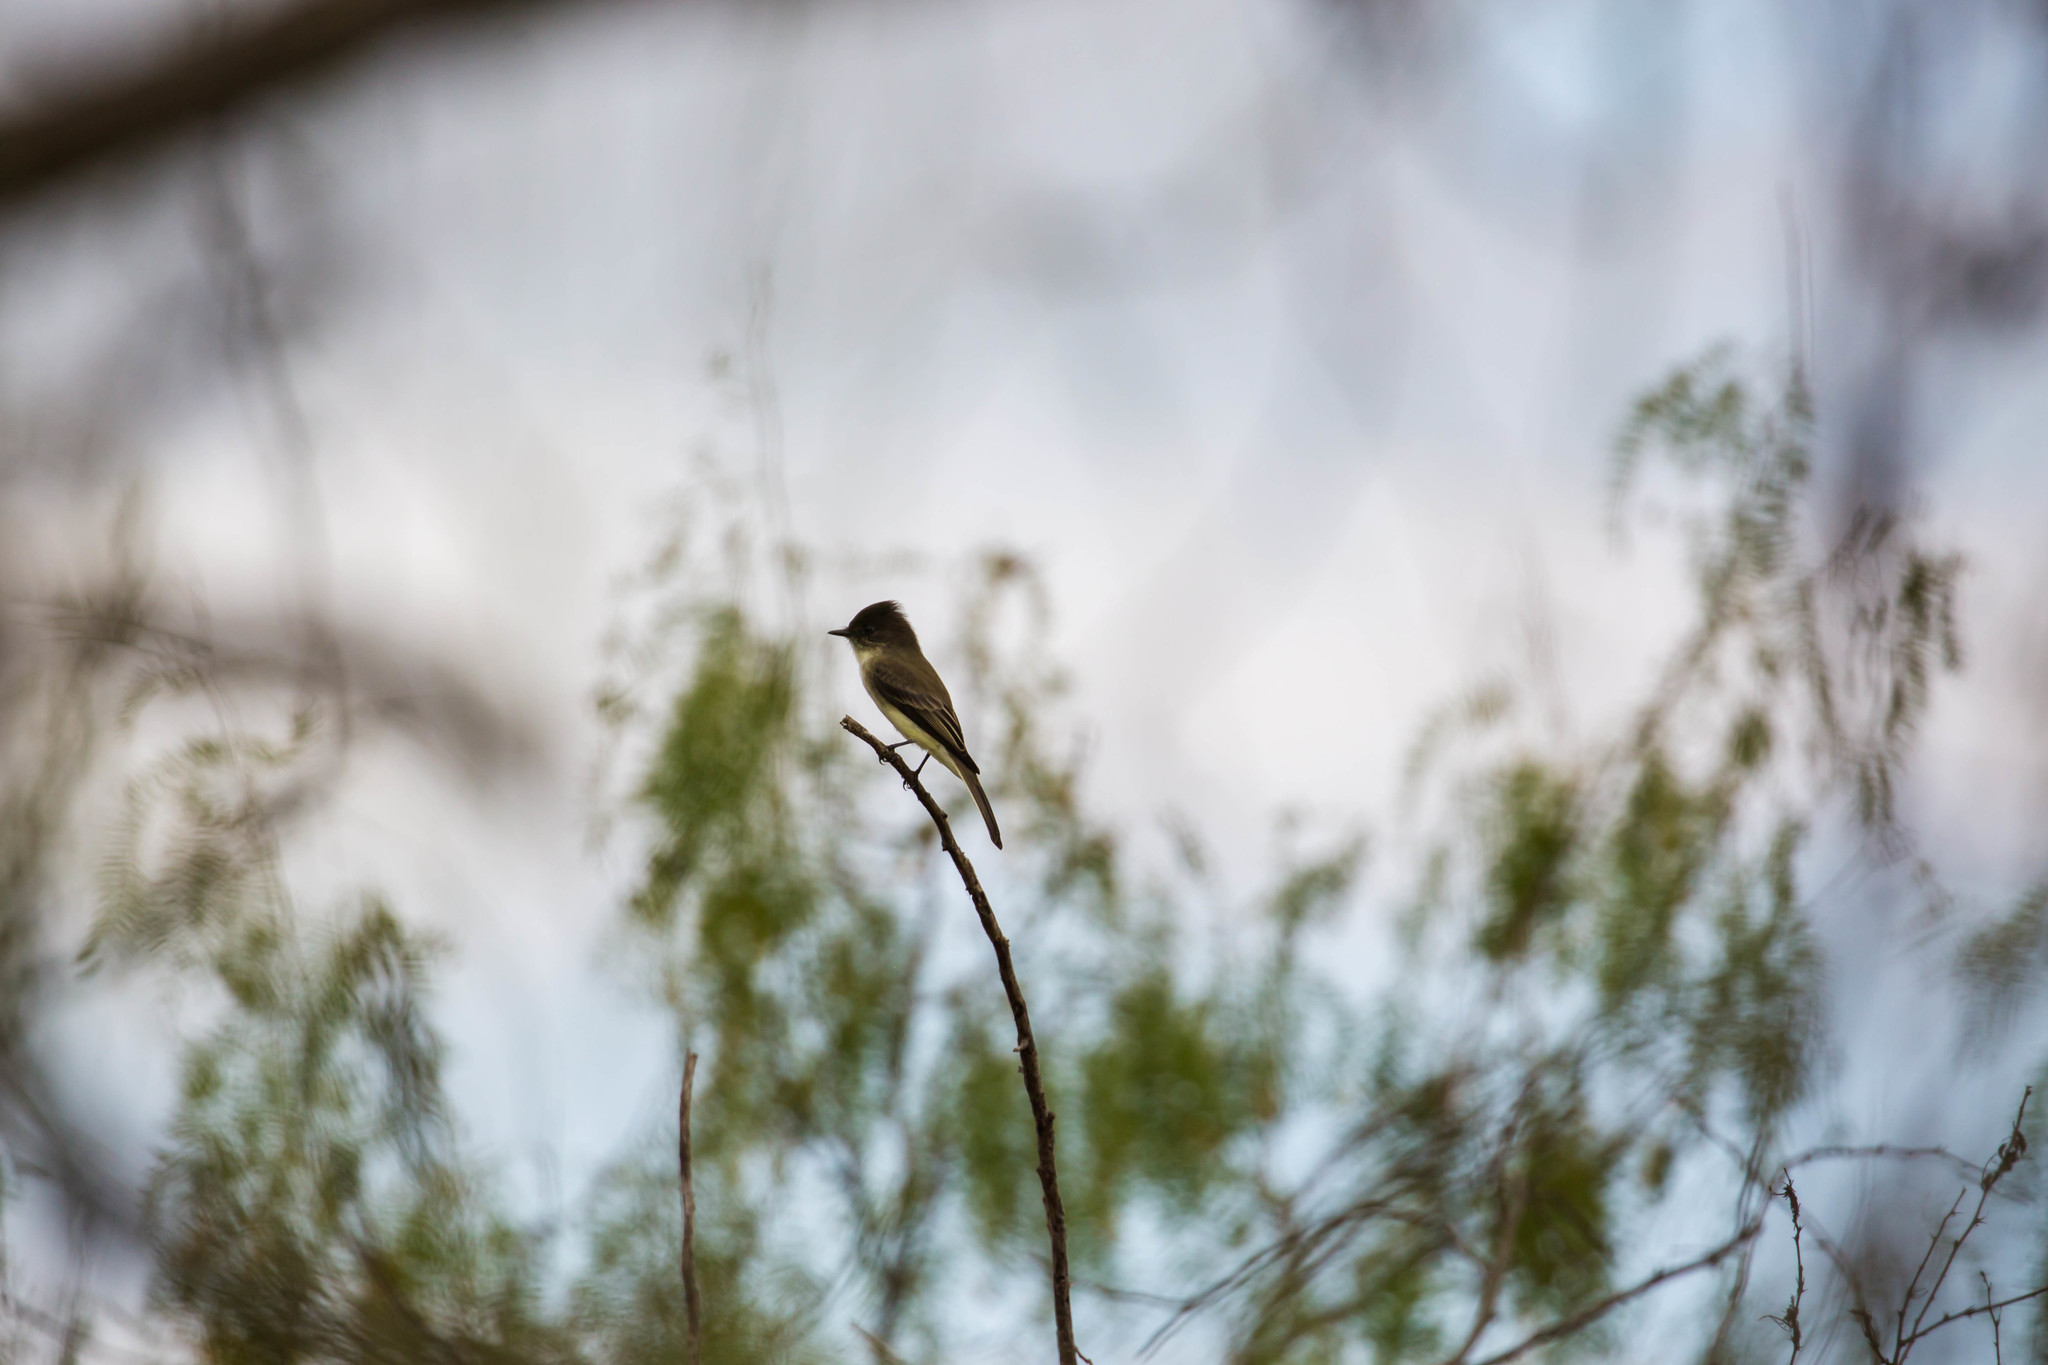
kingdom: Animalia
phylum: Chordata
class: Aves
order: Passeriformes
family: Tyrannidae
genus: Sayornis
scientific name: Sayornis phoebe
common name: Eastern phoebe
